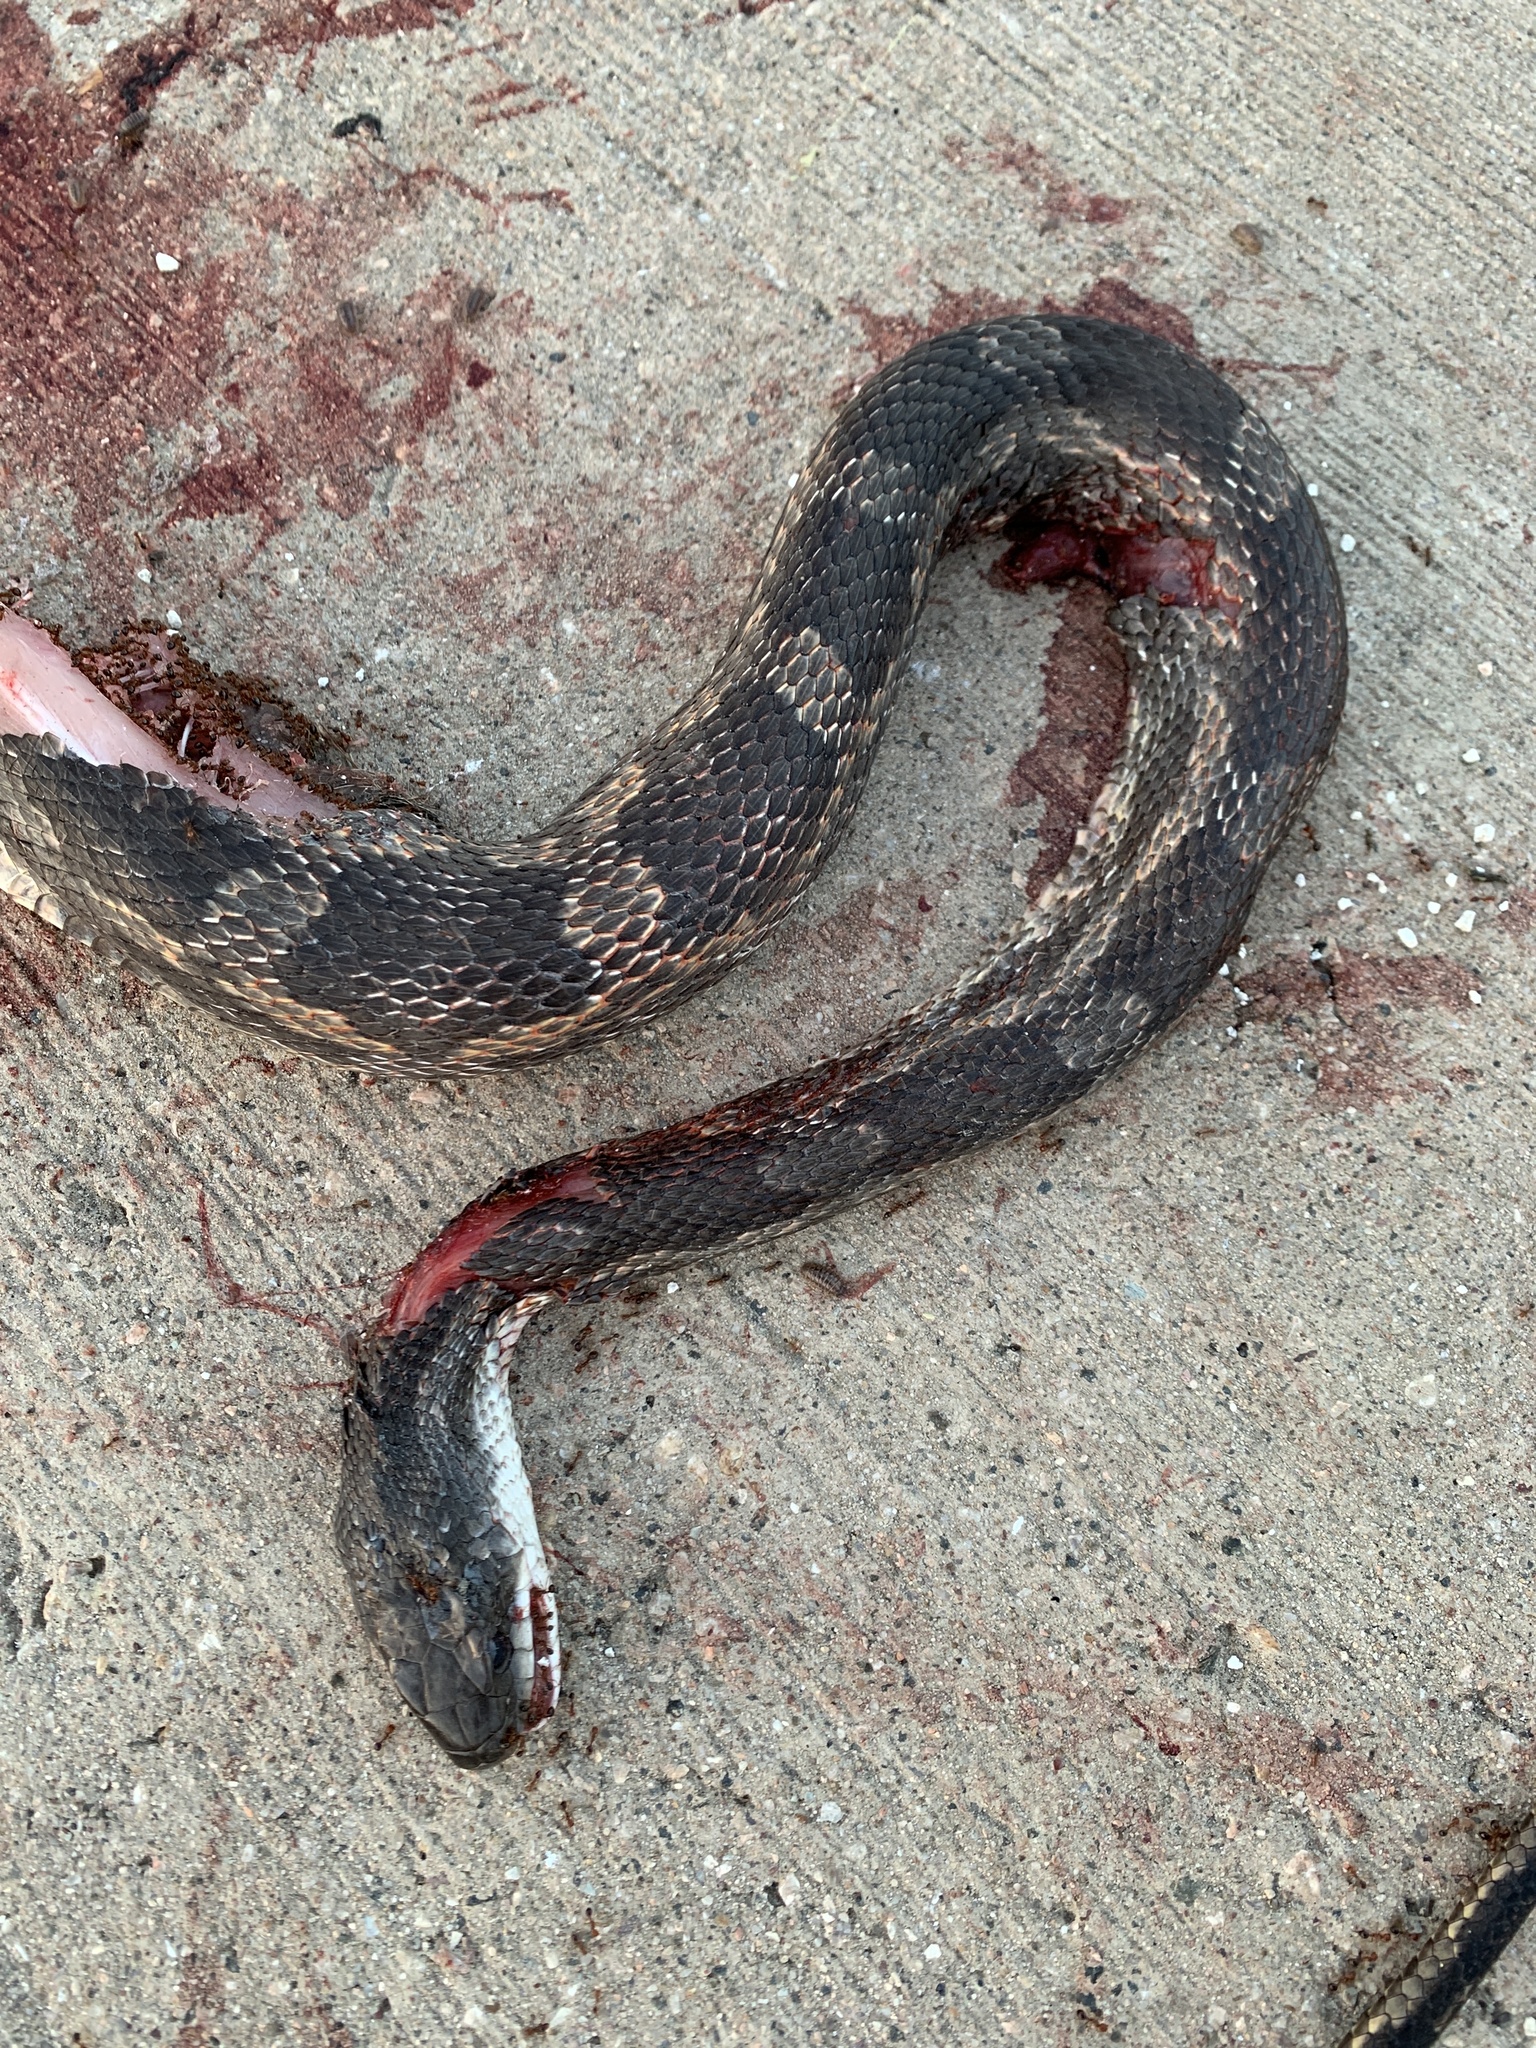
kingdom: Animalia
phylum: Chordata
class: Squamata
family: Colubridae
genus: Pantherophis
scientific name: Pantherophis obsoletus
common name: Black rat snake
